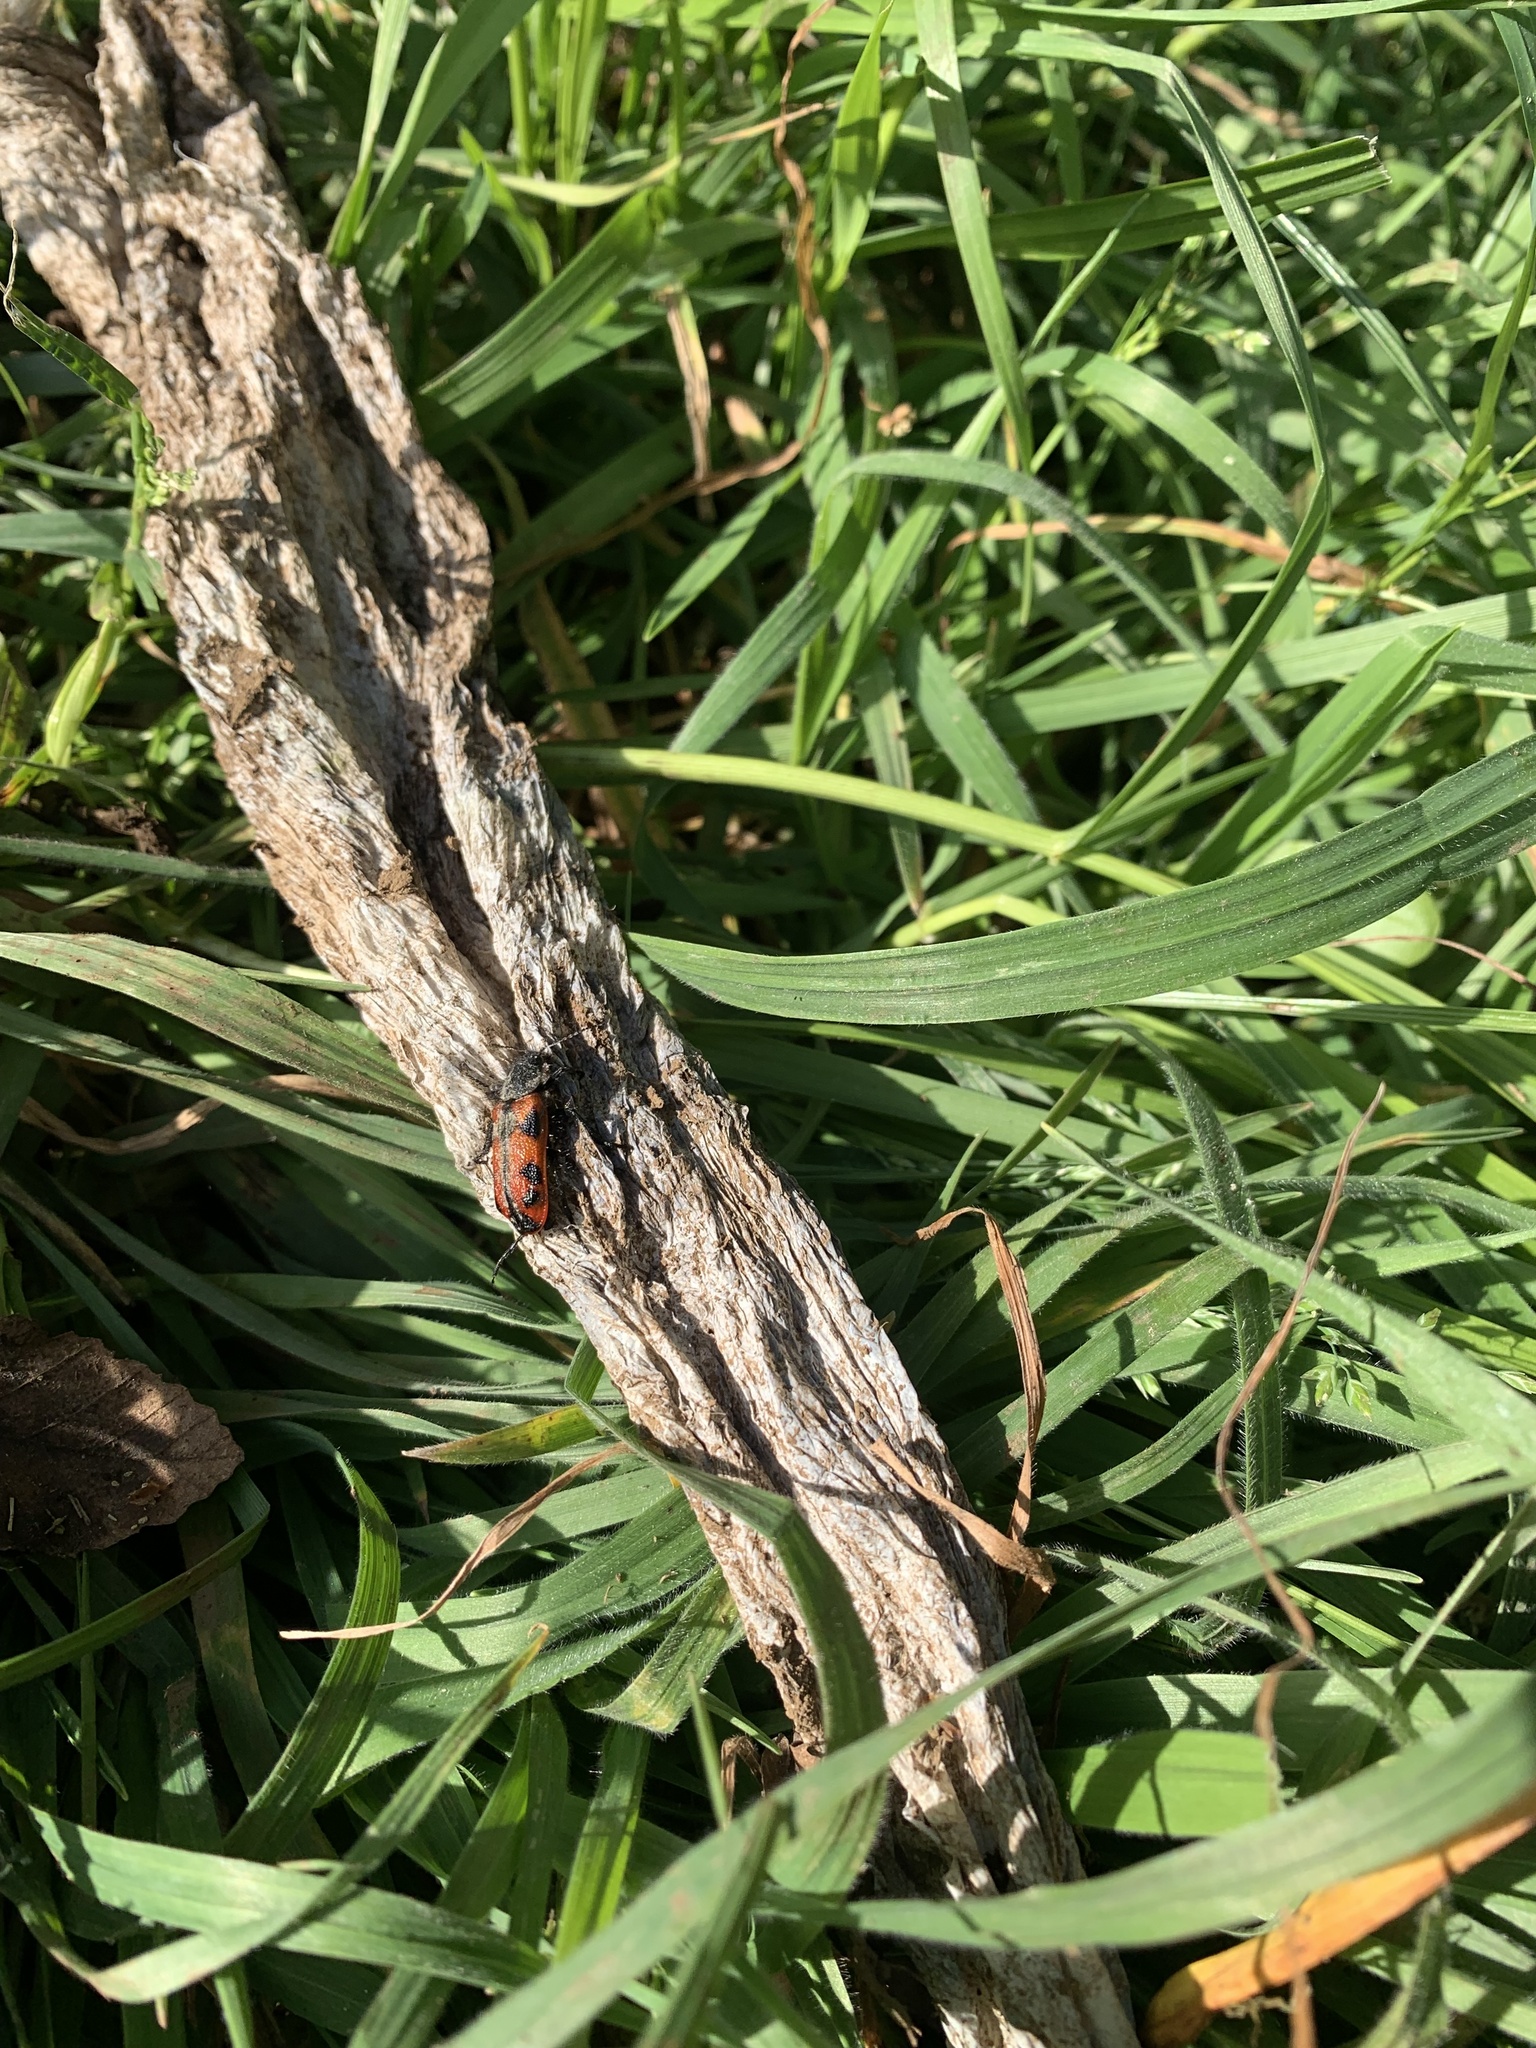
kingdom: Animalia
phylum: Arthropoda
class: Insecta
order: Coleoptera
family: Melyridae
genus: Astylus
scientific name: Astylus
